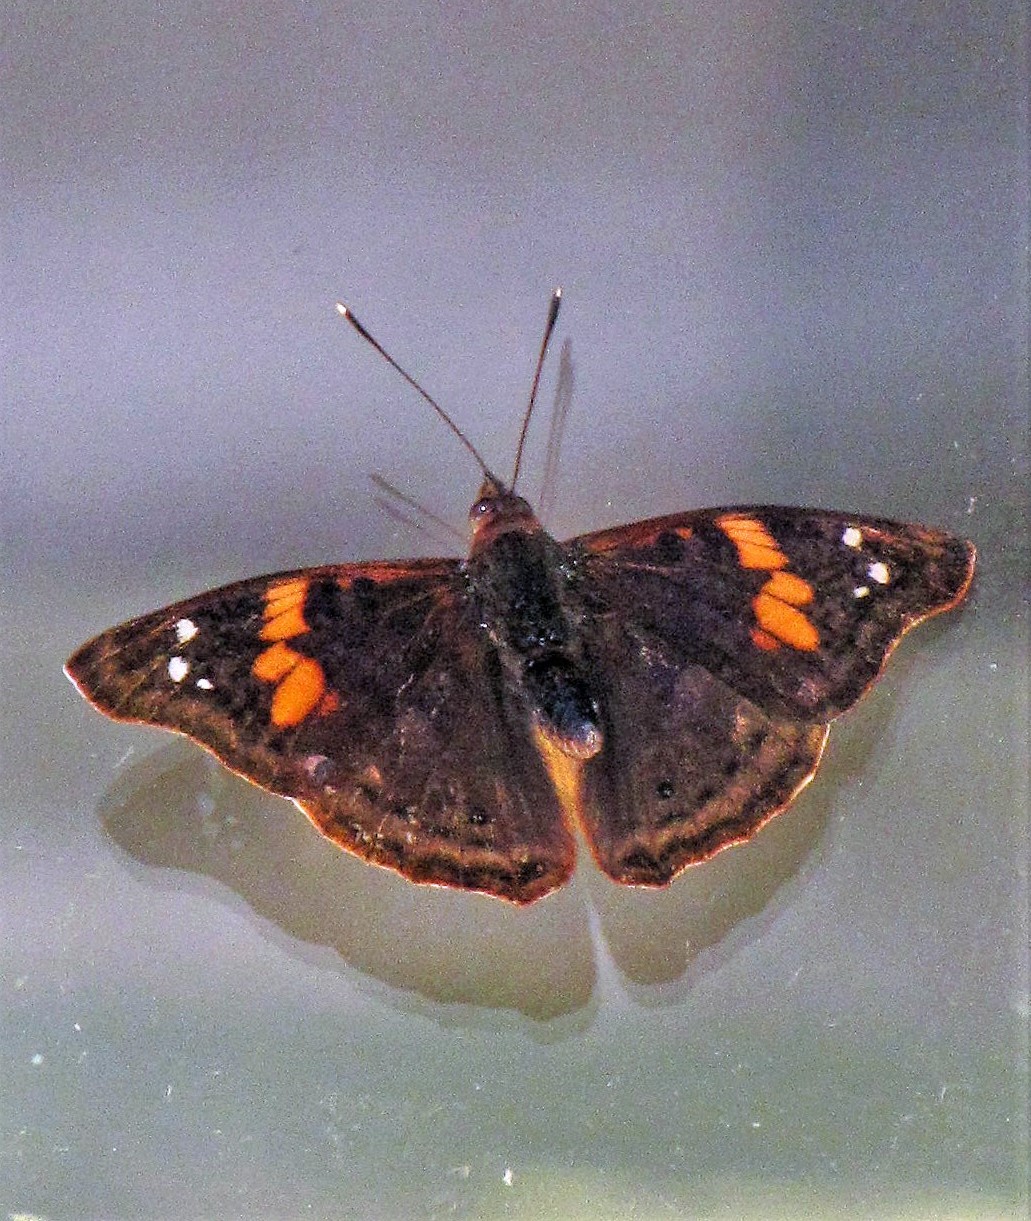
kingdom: Animalia
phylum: Arthropoda
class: Insecta
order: Lepidoptera
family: Nymphalidae
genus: Doxocopa
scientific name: Doxocopa agathina
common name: Agathina emperor
